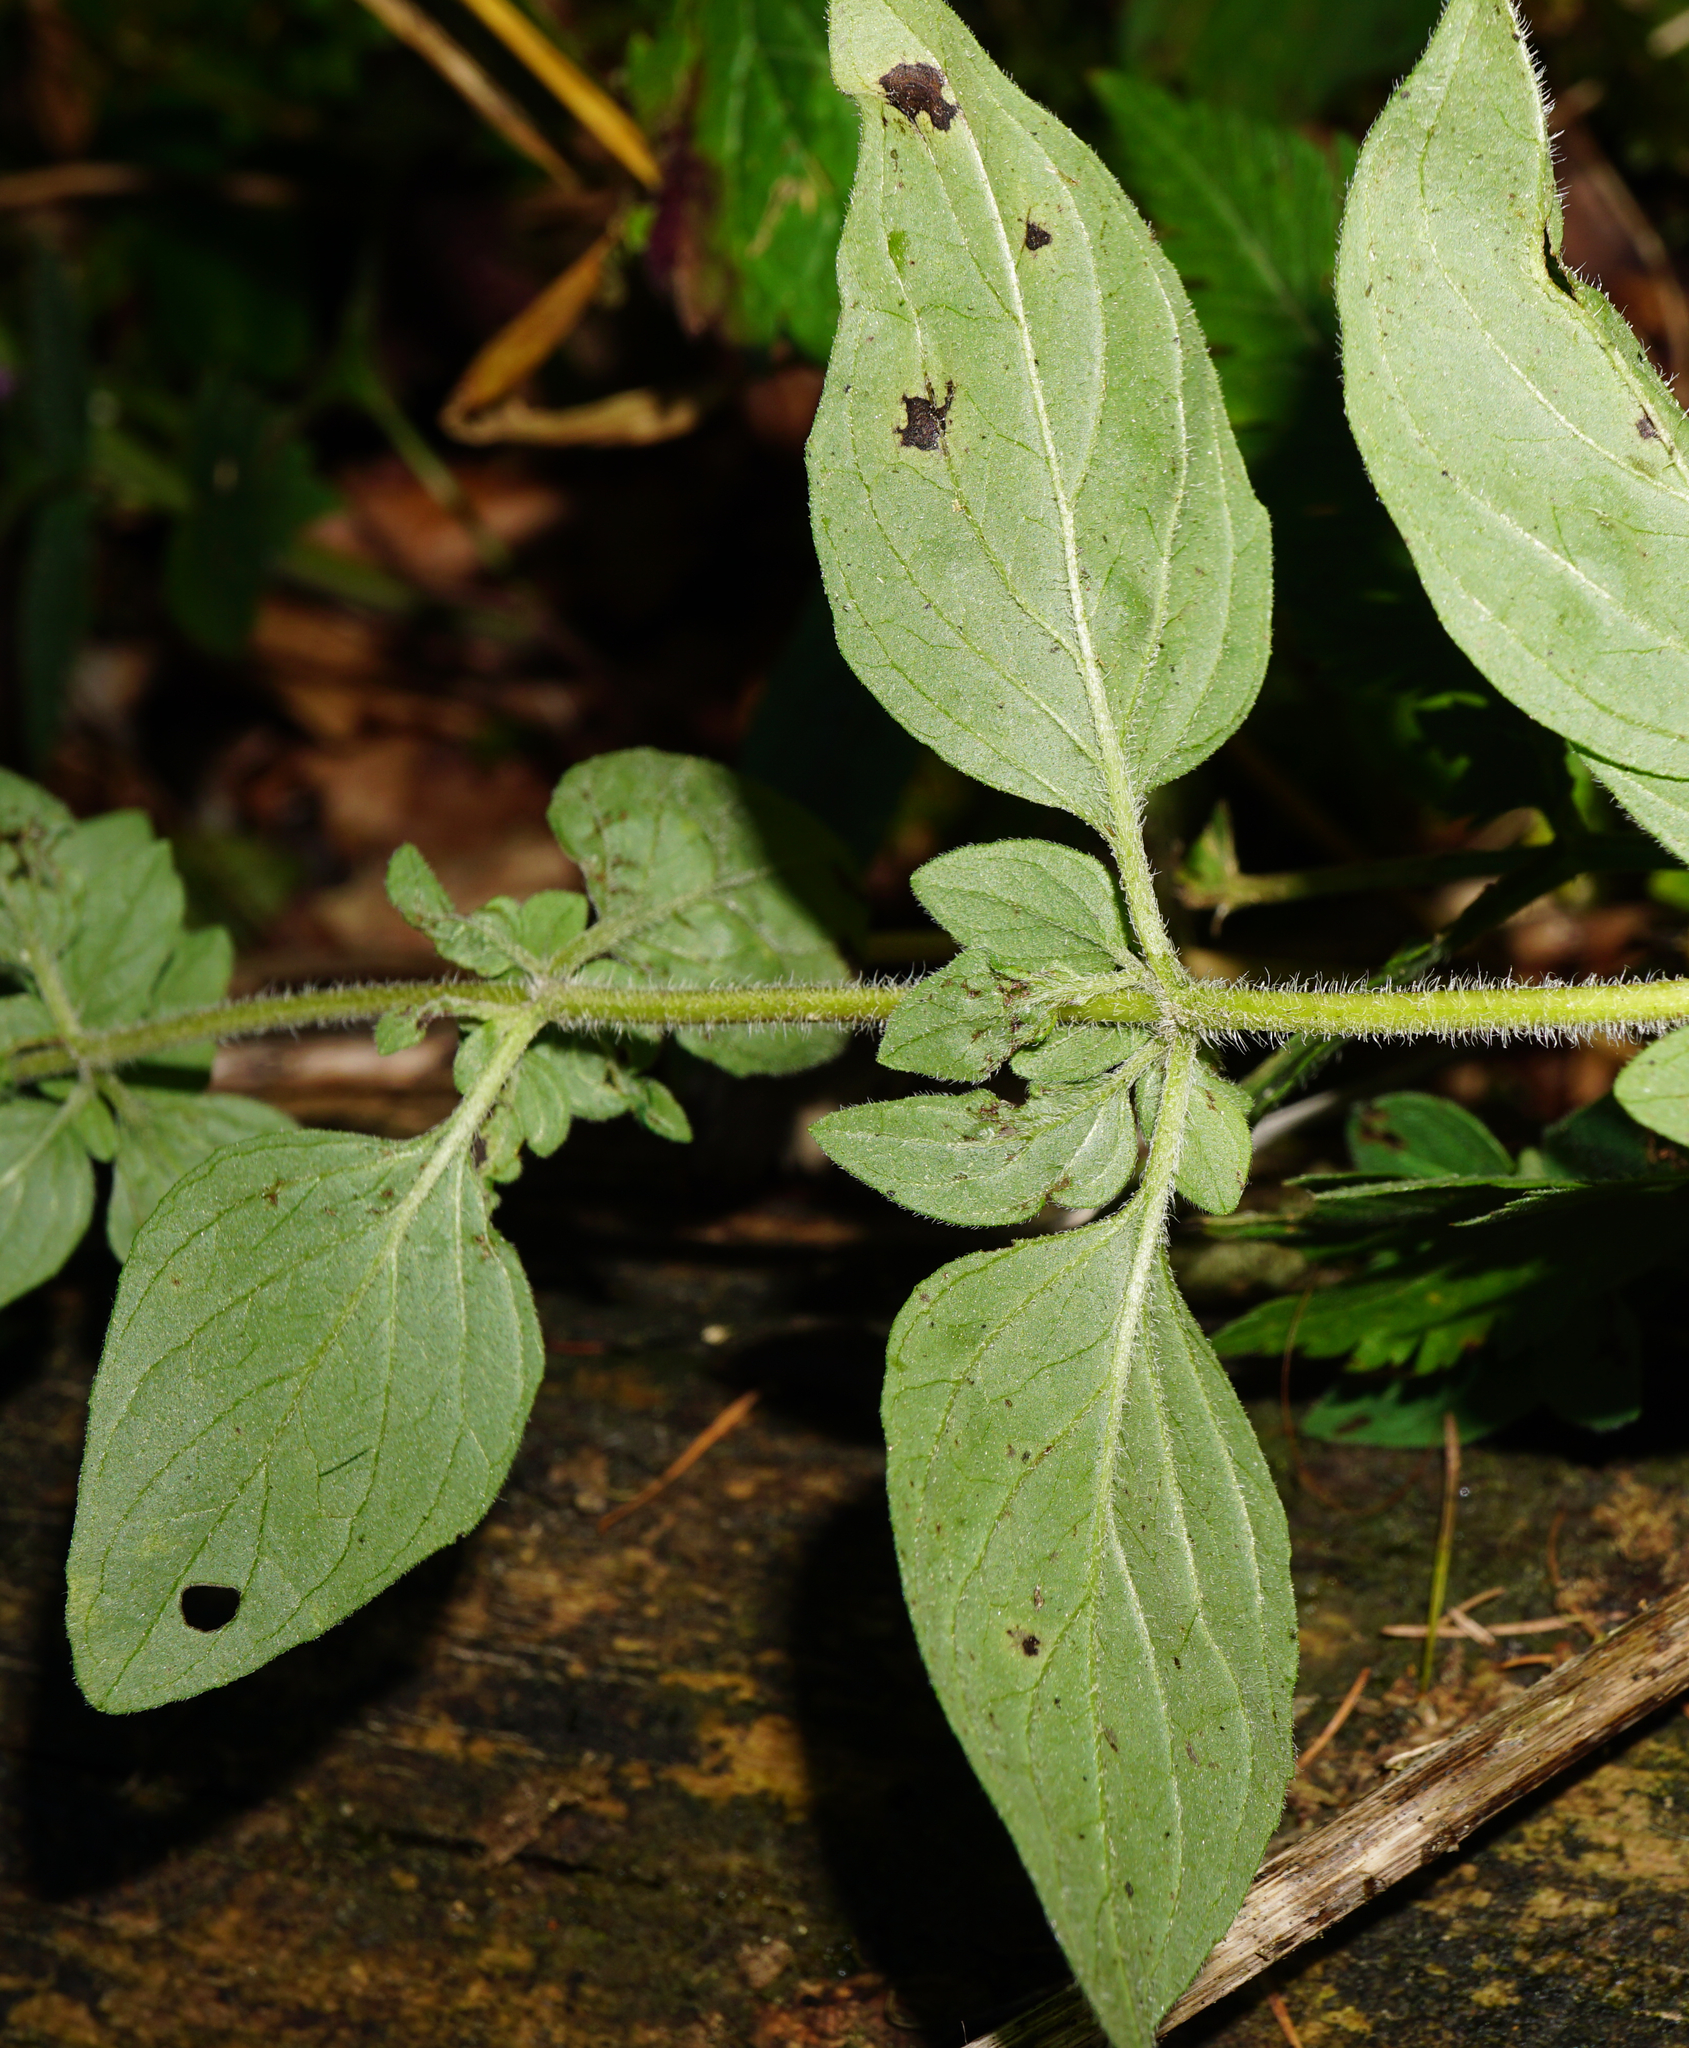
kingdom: Plantae
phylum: Tracheophyta
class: Magnoliopsida
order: Lamiales
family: Lamiaceae
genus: Origanum
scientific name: Origanum vulgare
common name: Wild marjoram
